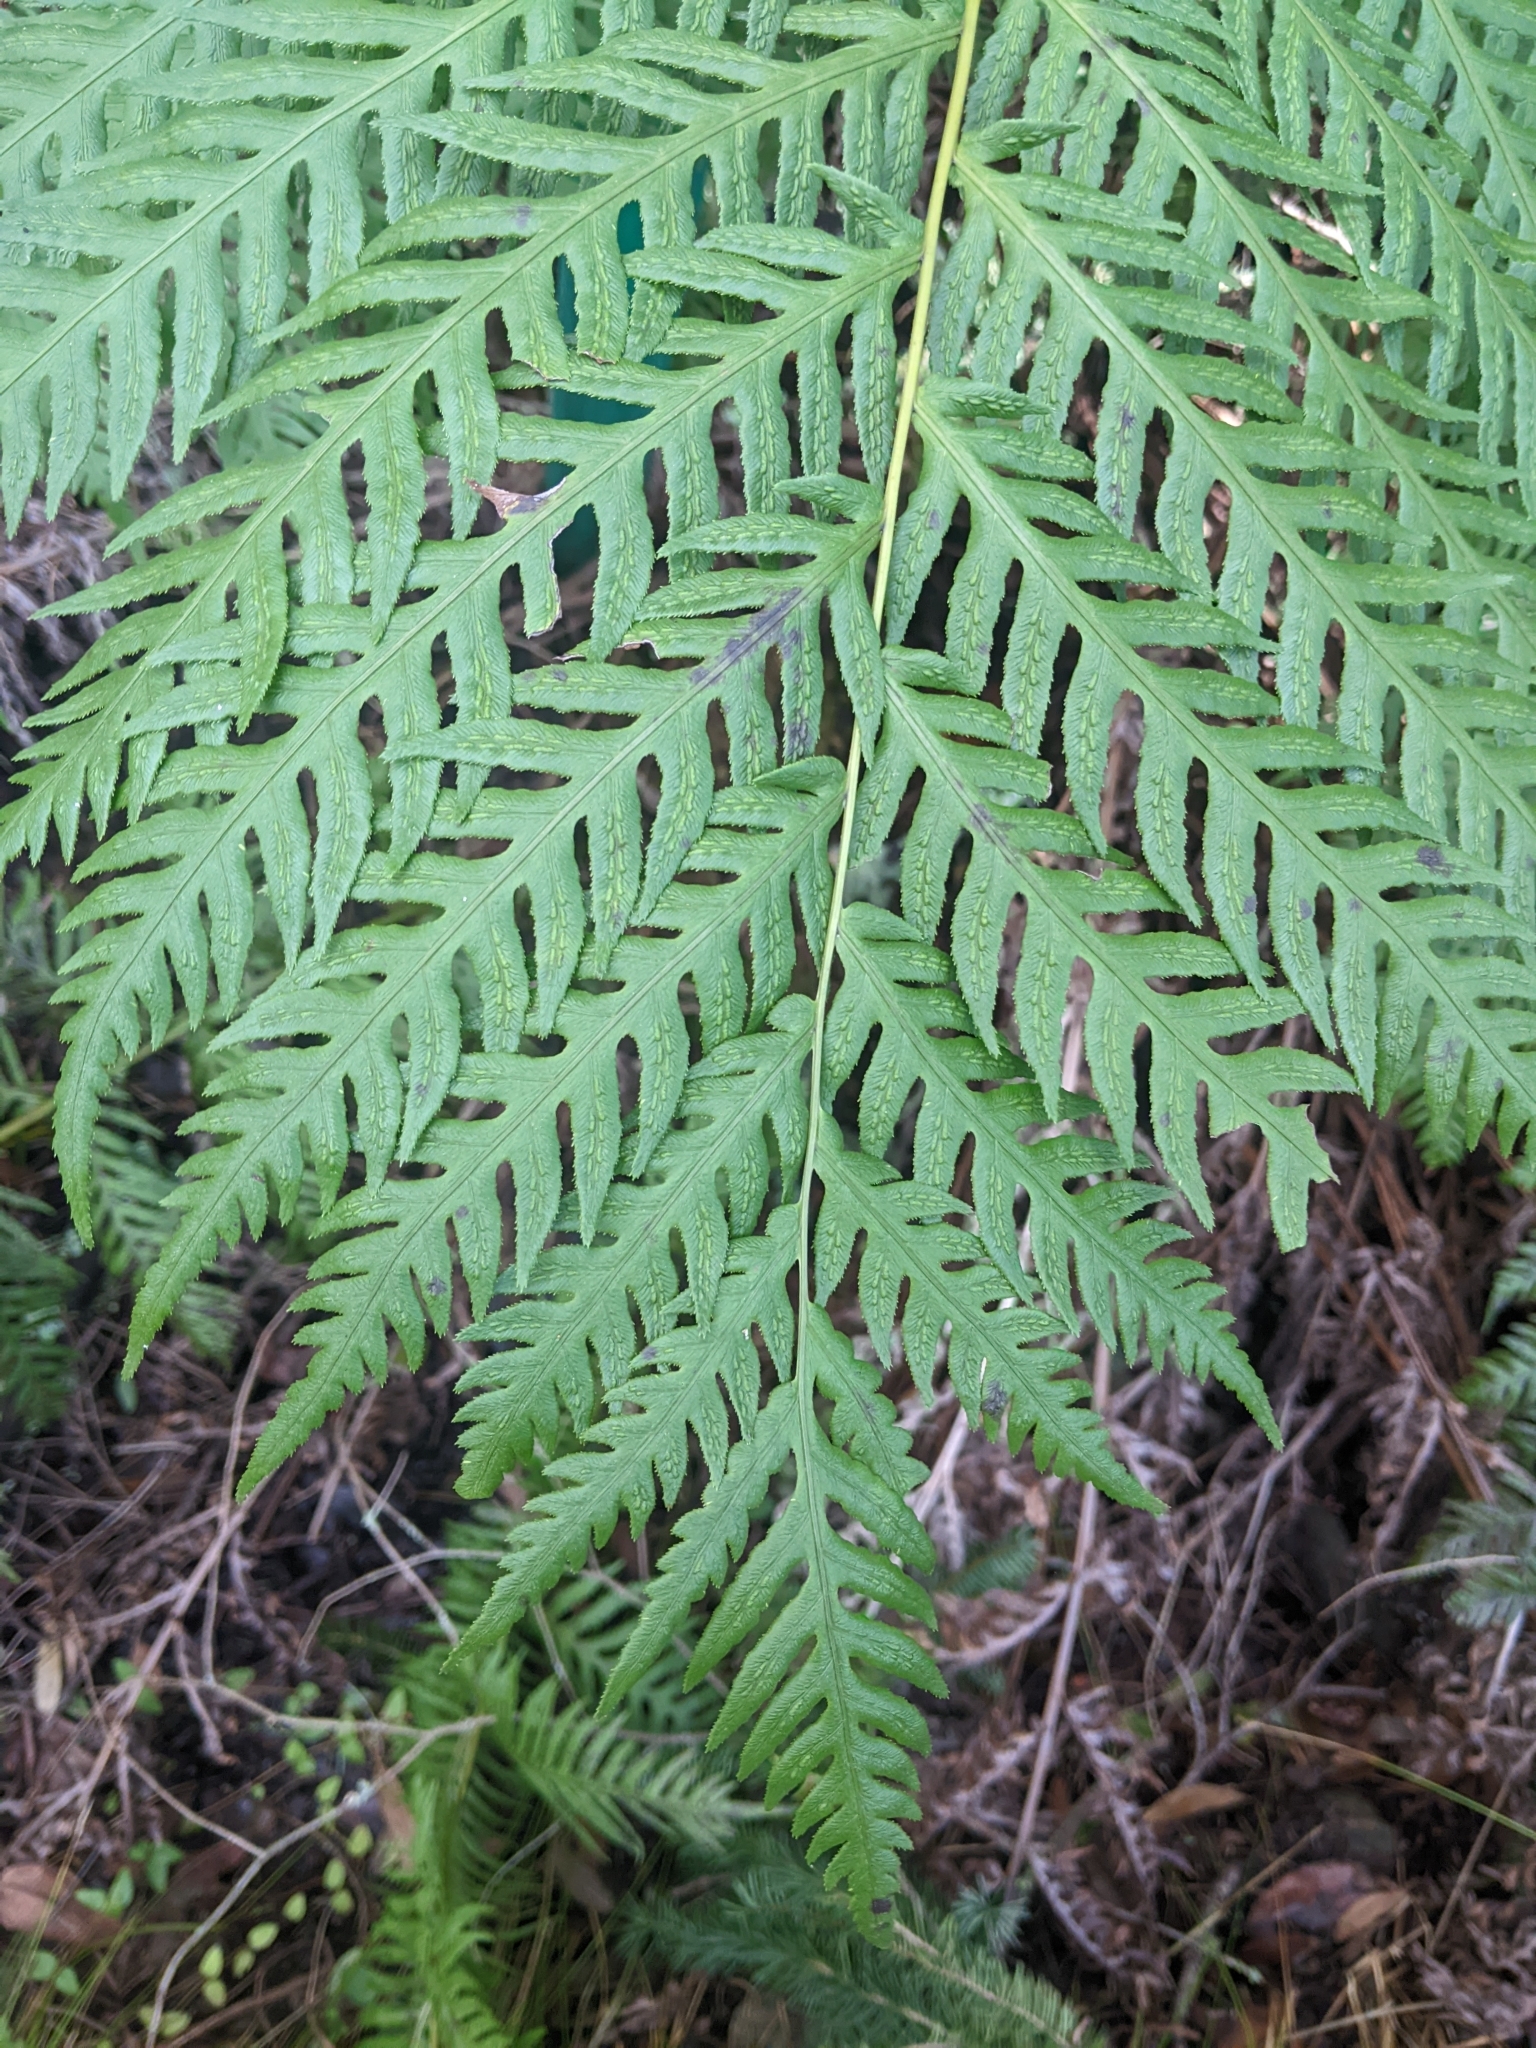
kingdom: Plantae
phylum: Tracheophyta
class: Polypodiopsida
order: Polypodiales
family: Blechnaceae
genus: Woodwardia
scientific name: Woodwardia fimbriata
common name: Giant chain fern
